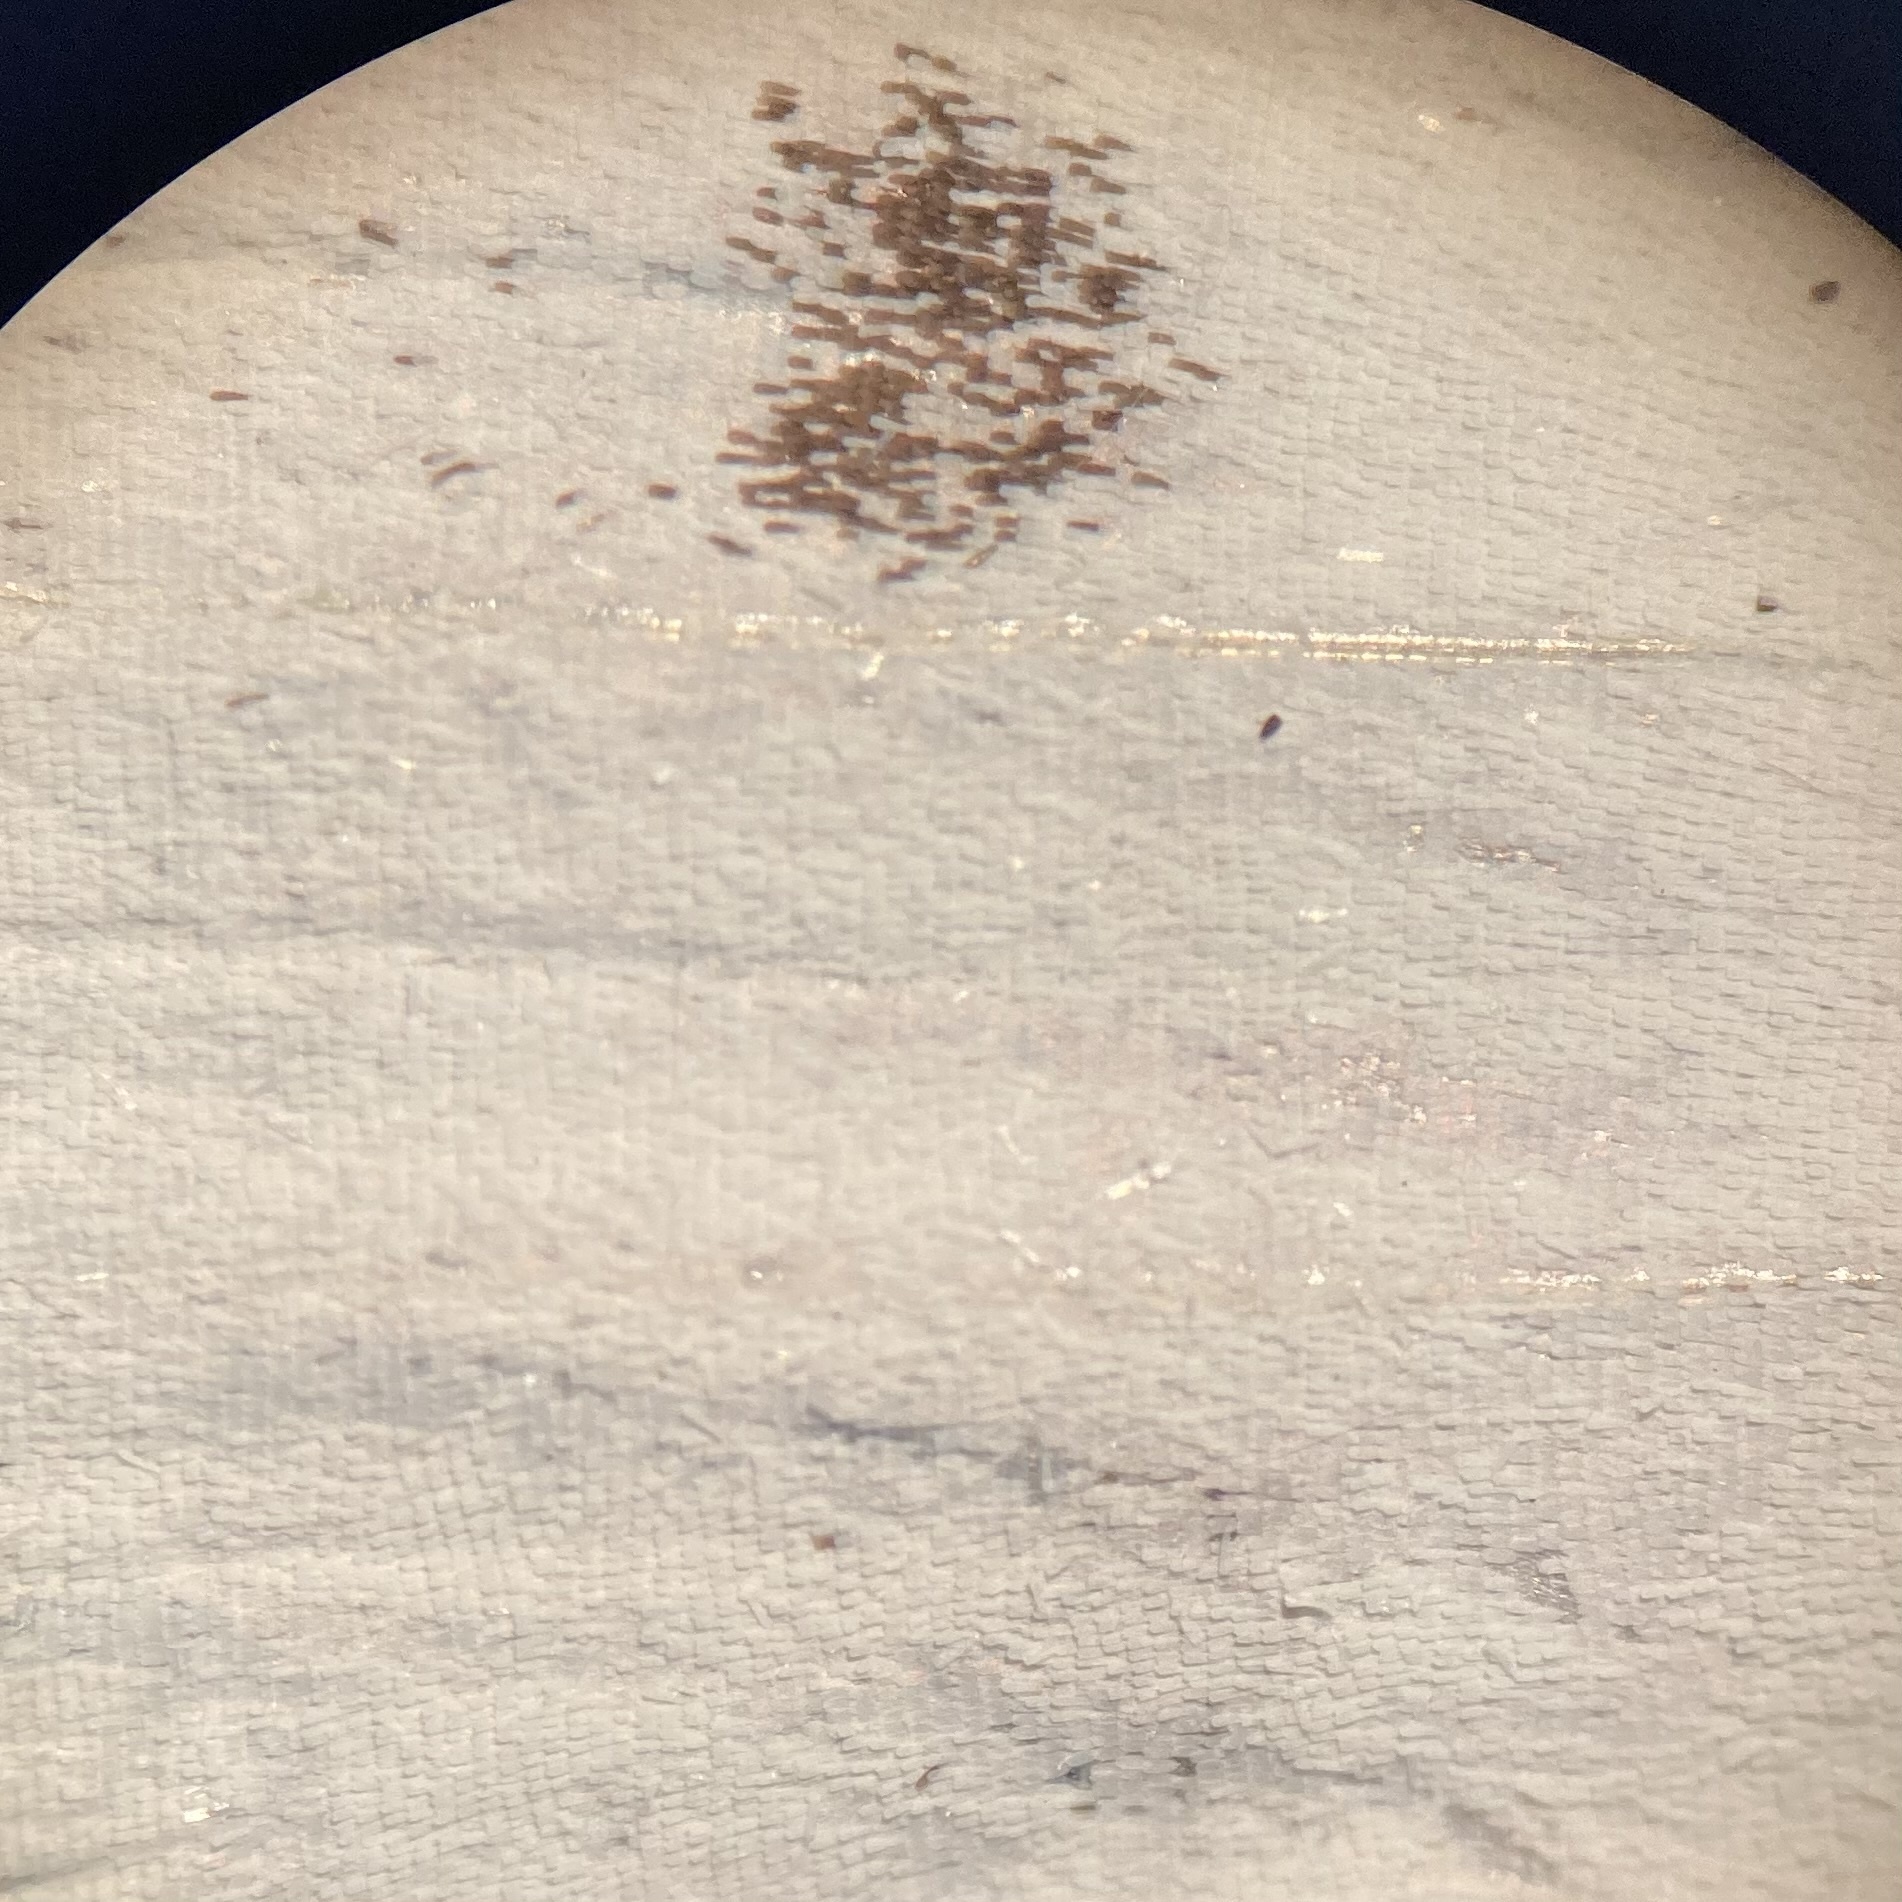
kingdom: Animalia
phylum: Arthropoda
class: Insecta
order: Lepidoptera
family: Pieridae
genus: Pieris
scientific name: Pieris rapae
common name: Small white
